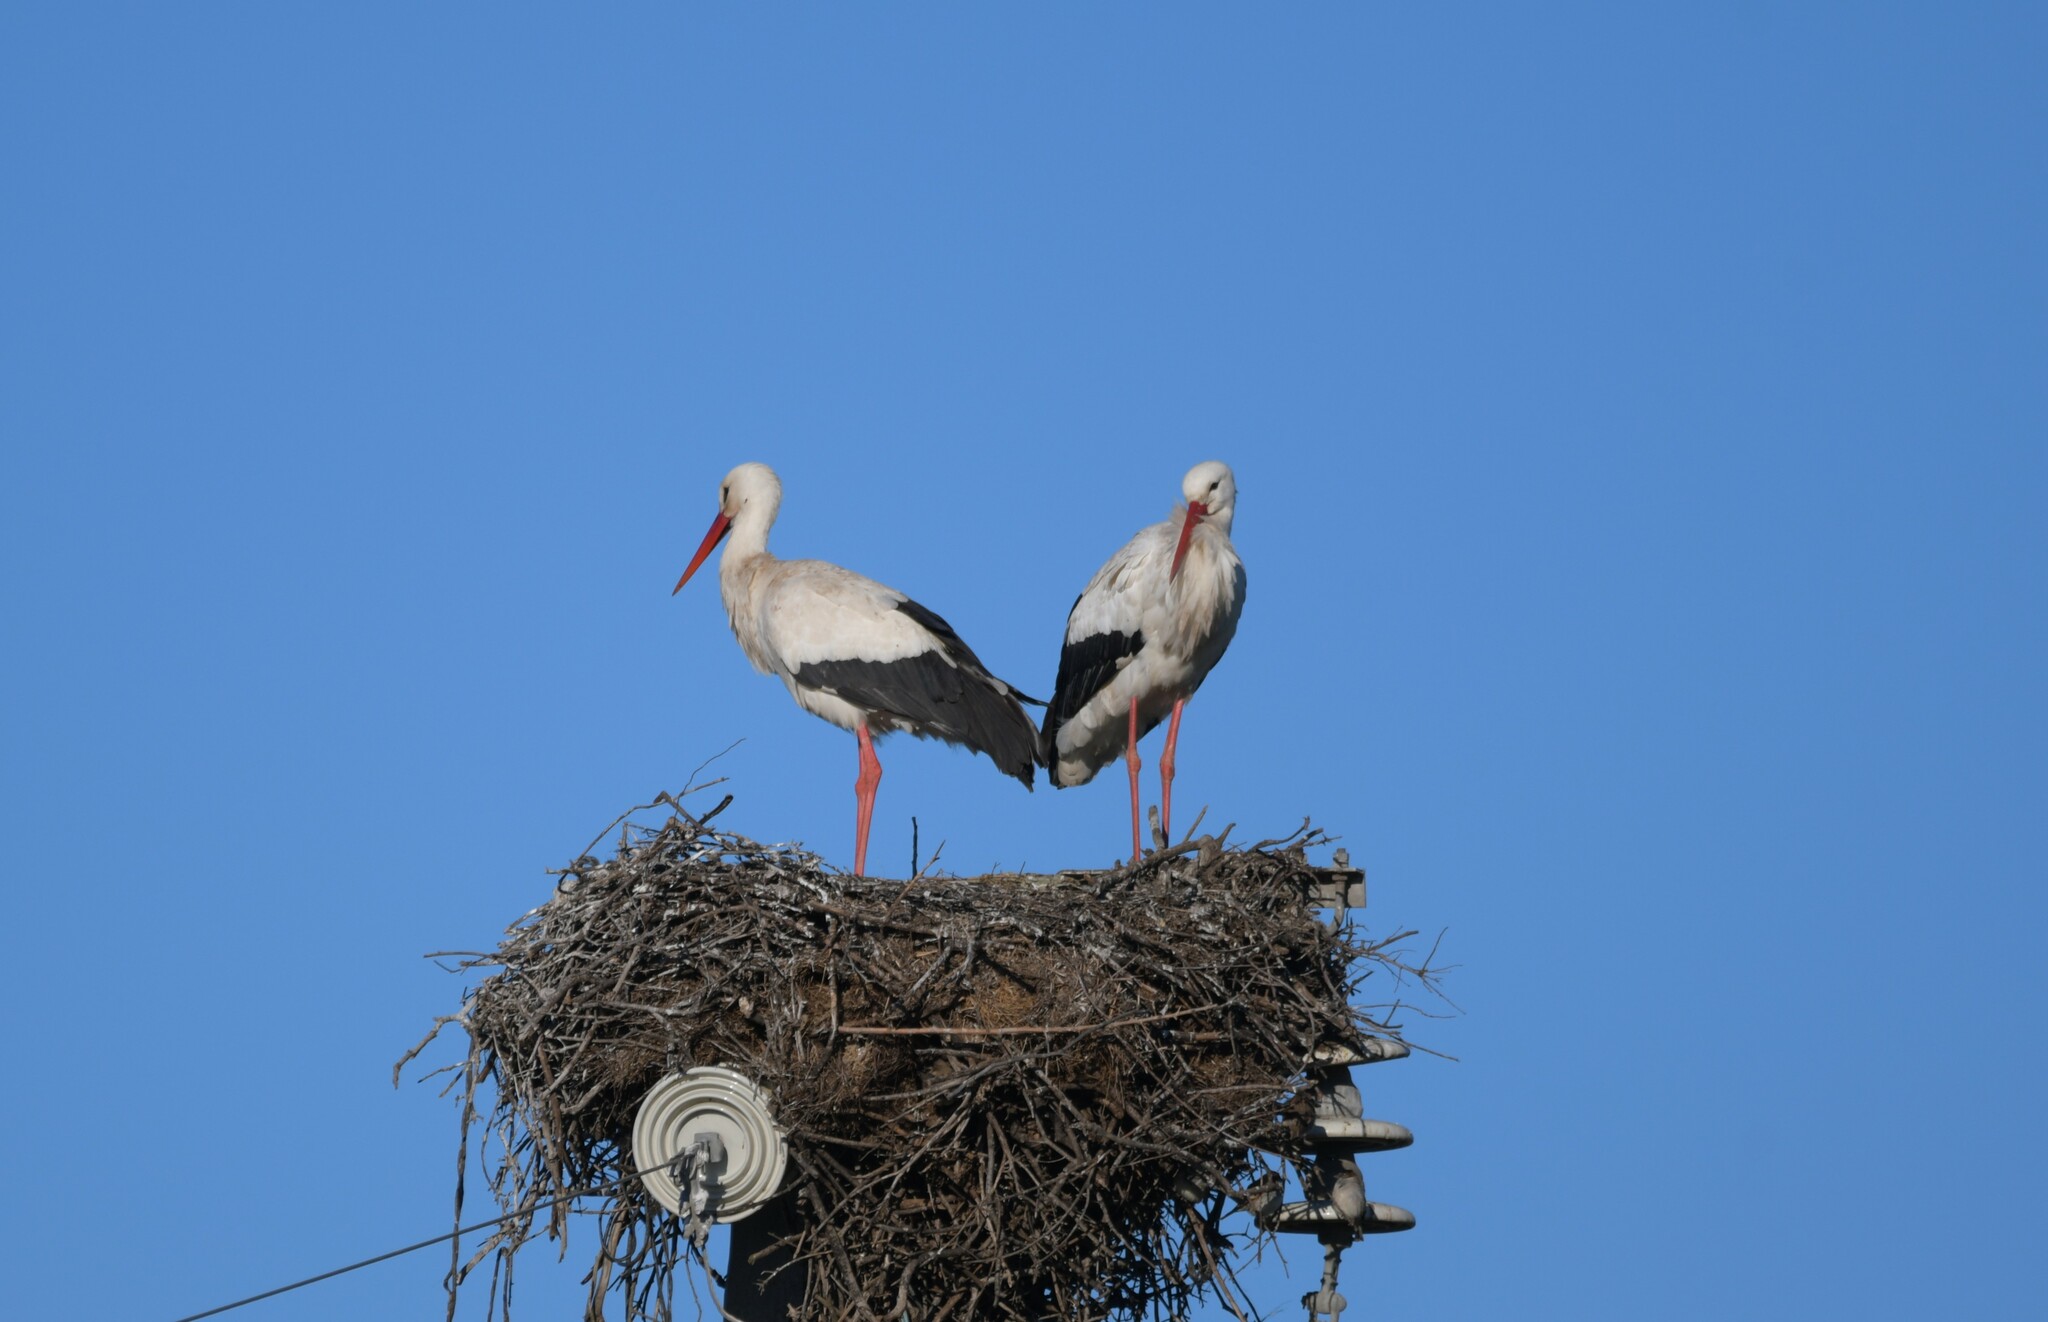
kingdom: Animalia
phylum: Chordata
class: Aves
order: Ciconiiformes
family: Ciconiidae
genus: Ciconia
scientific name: Ciconia ciconia
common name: White stork
